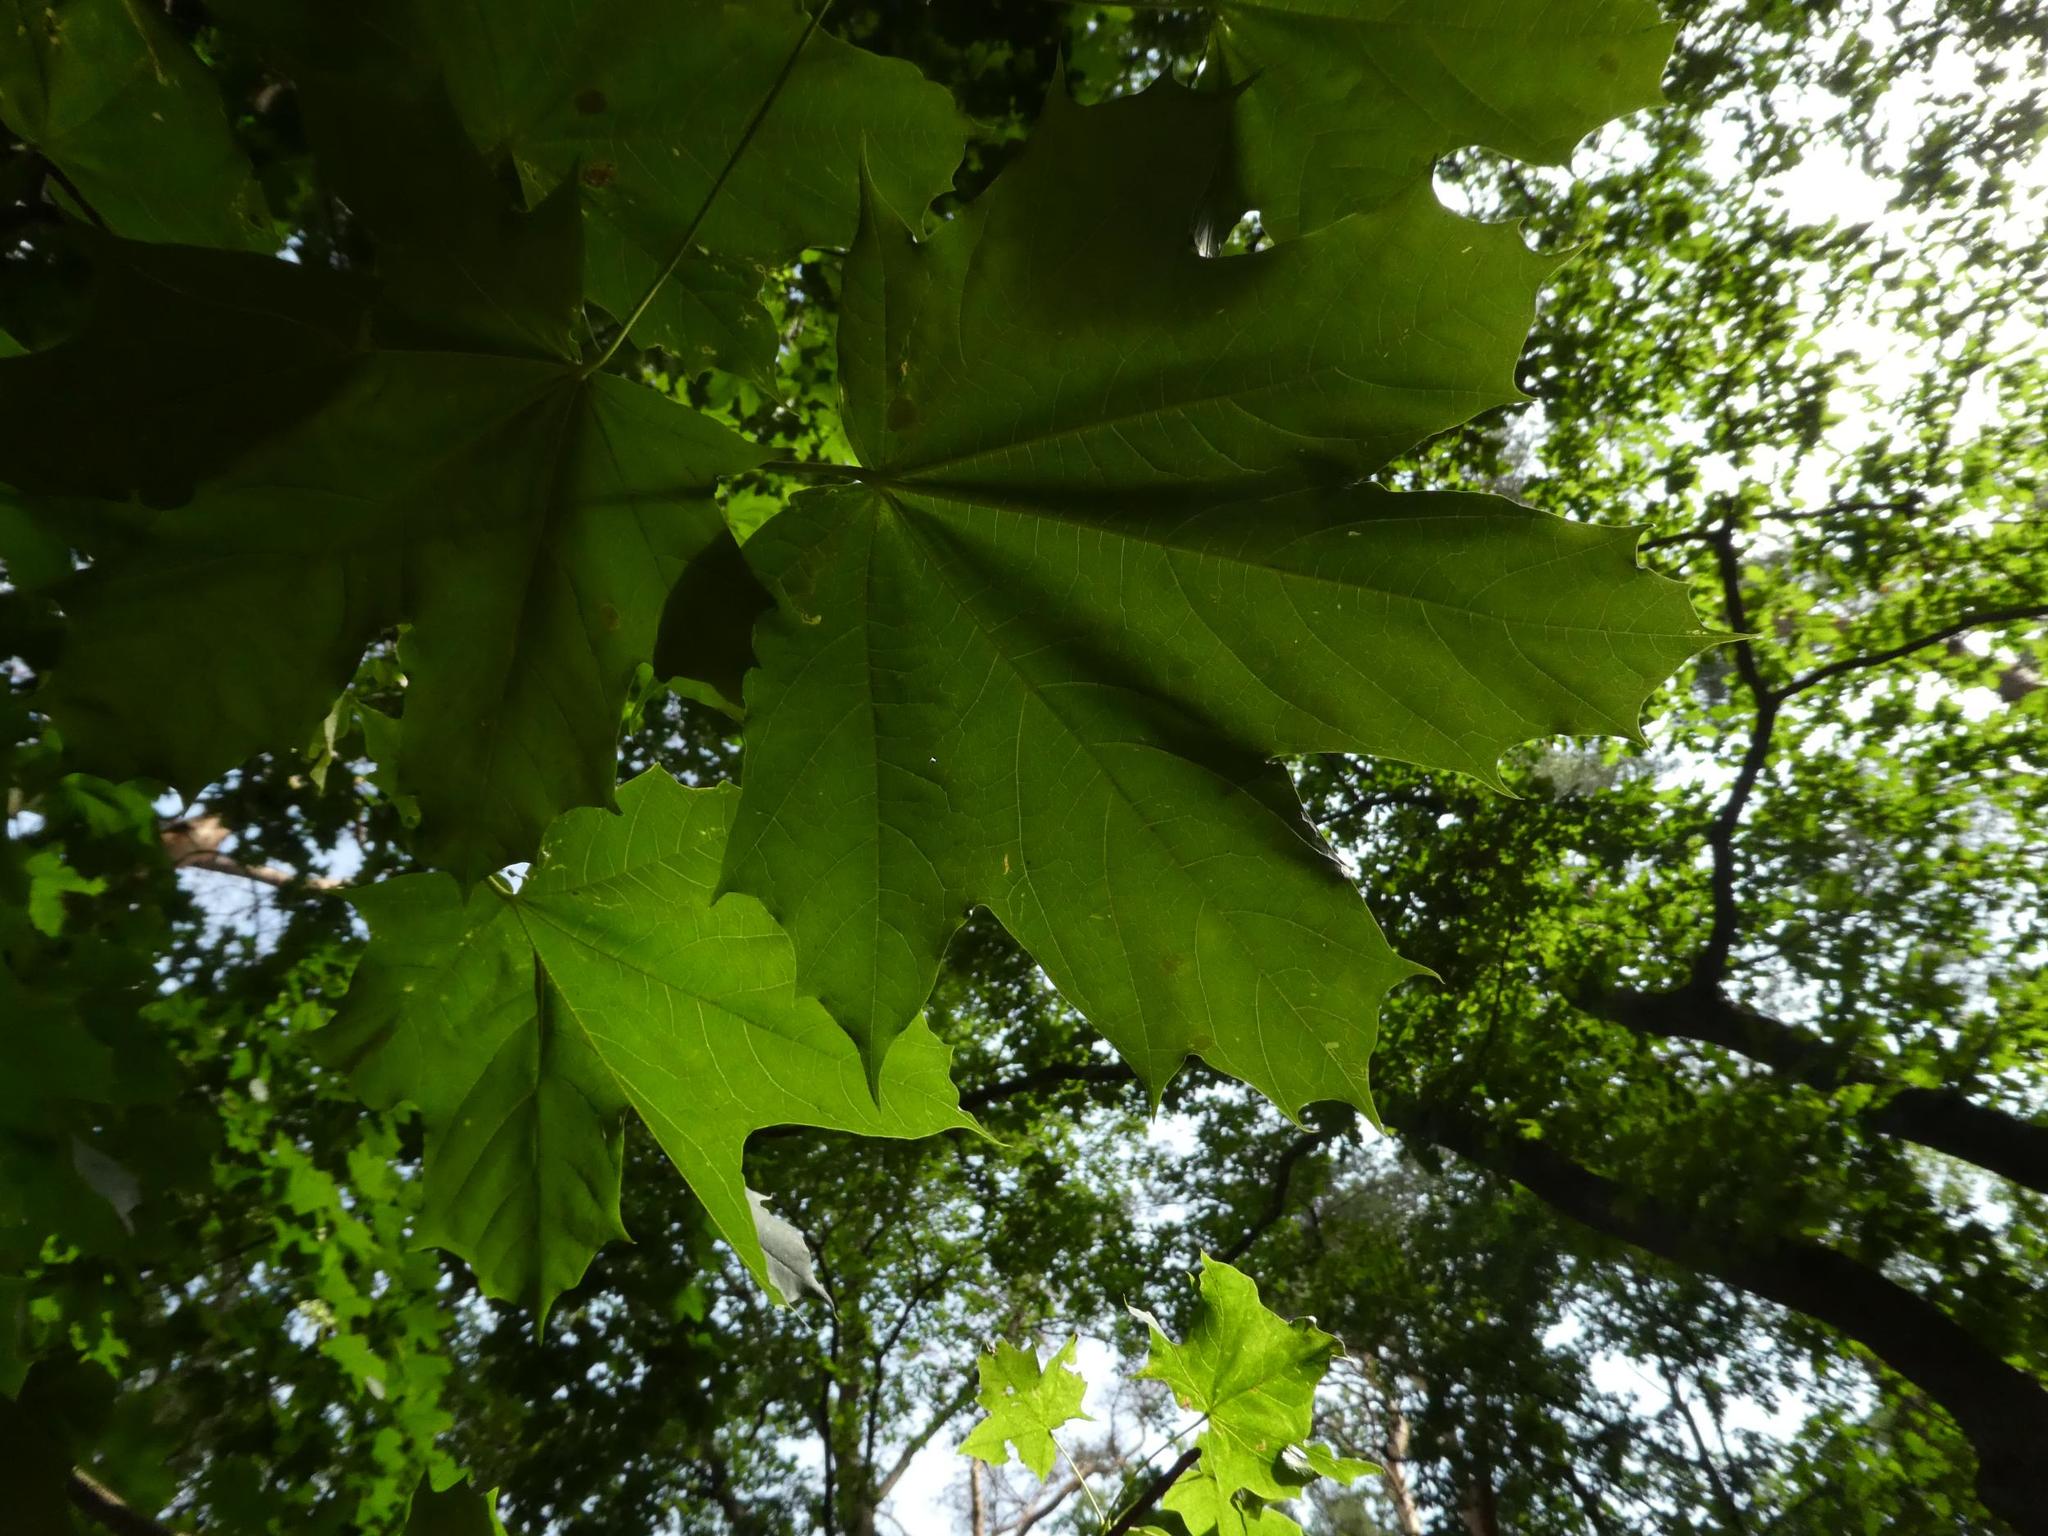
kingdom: Plantae
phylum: Tracheophyta
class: Magnoliopsida
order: Sapindales
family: Sapindaceae
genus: Acer
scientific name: Acer platanoides
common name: Norway maple
